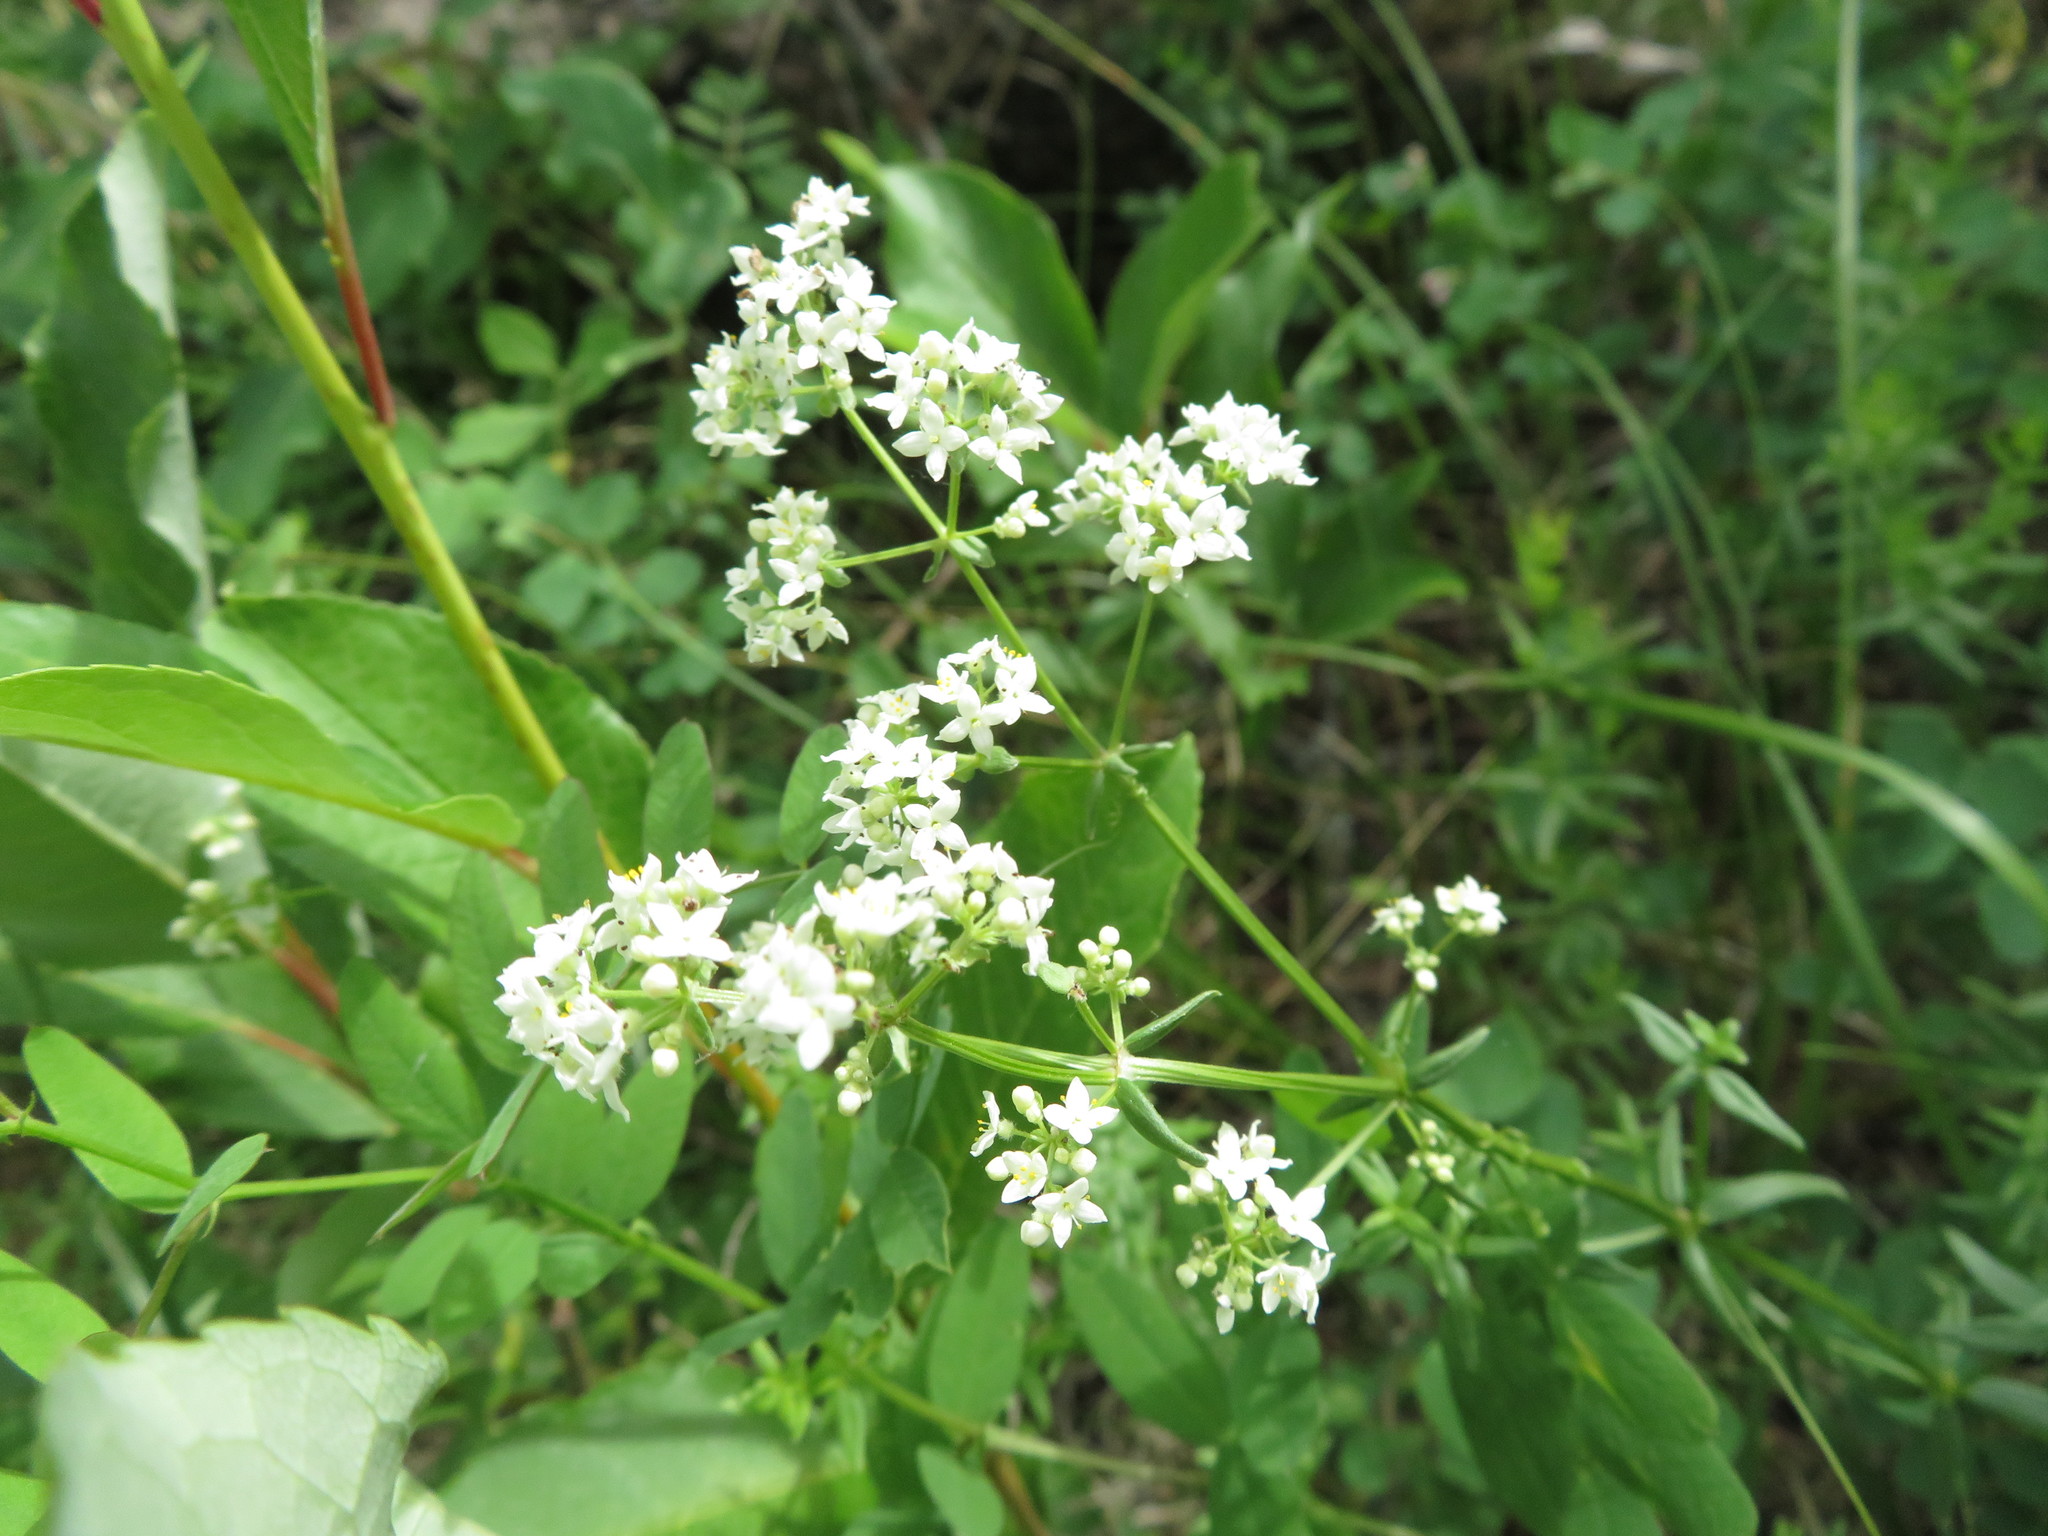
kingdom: Plantae
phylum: Tracheophyta
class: Magnoliopsida
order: Gentianales
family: Rubiaceae
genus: Galium
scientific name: Galium boreale
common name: Northern bedstraw
